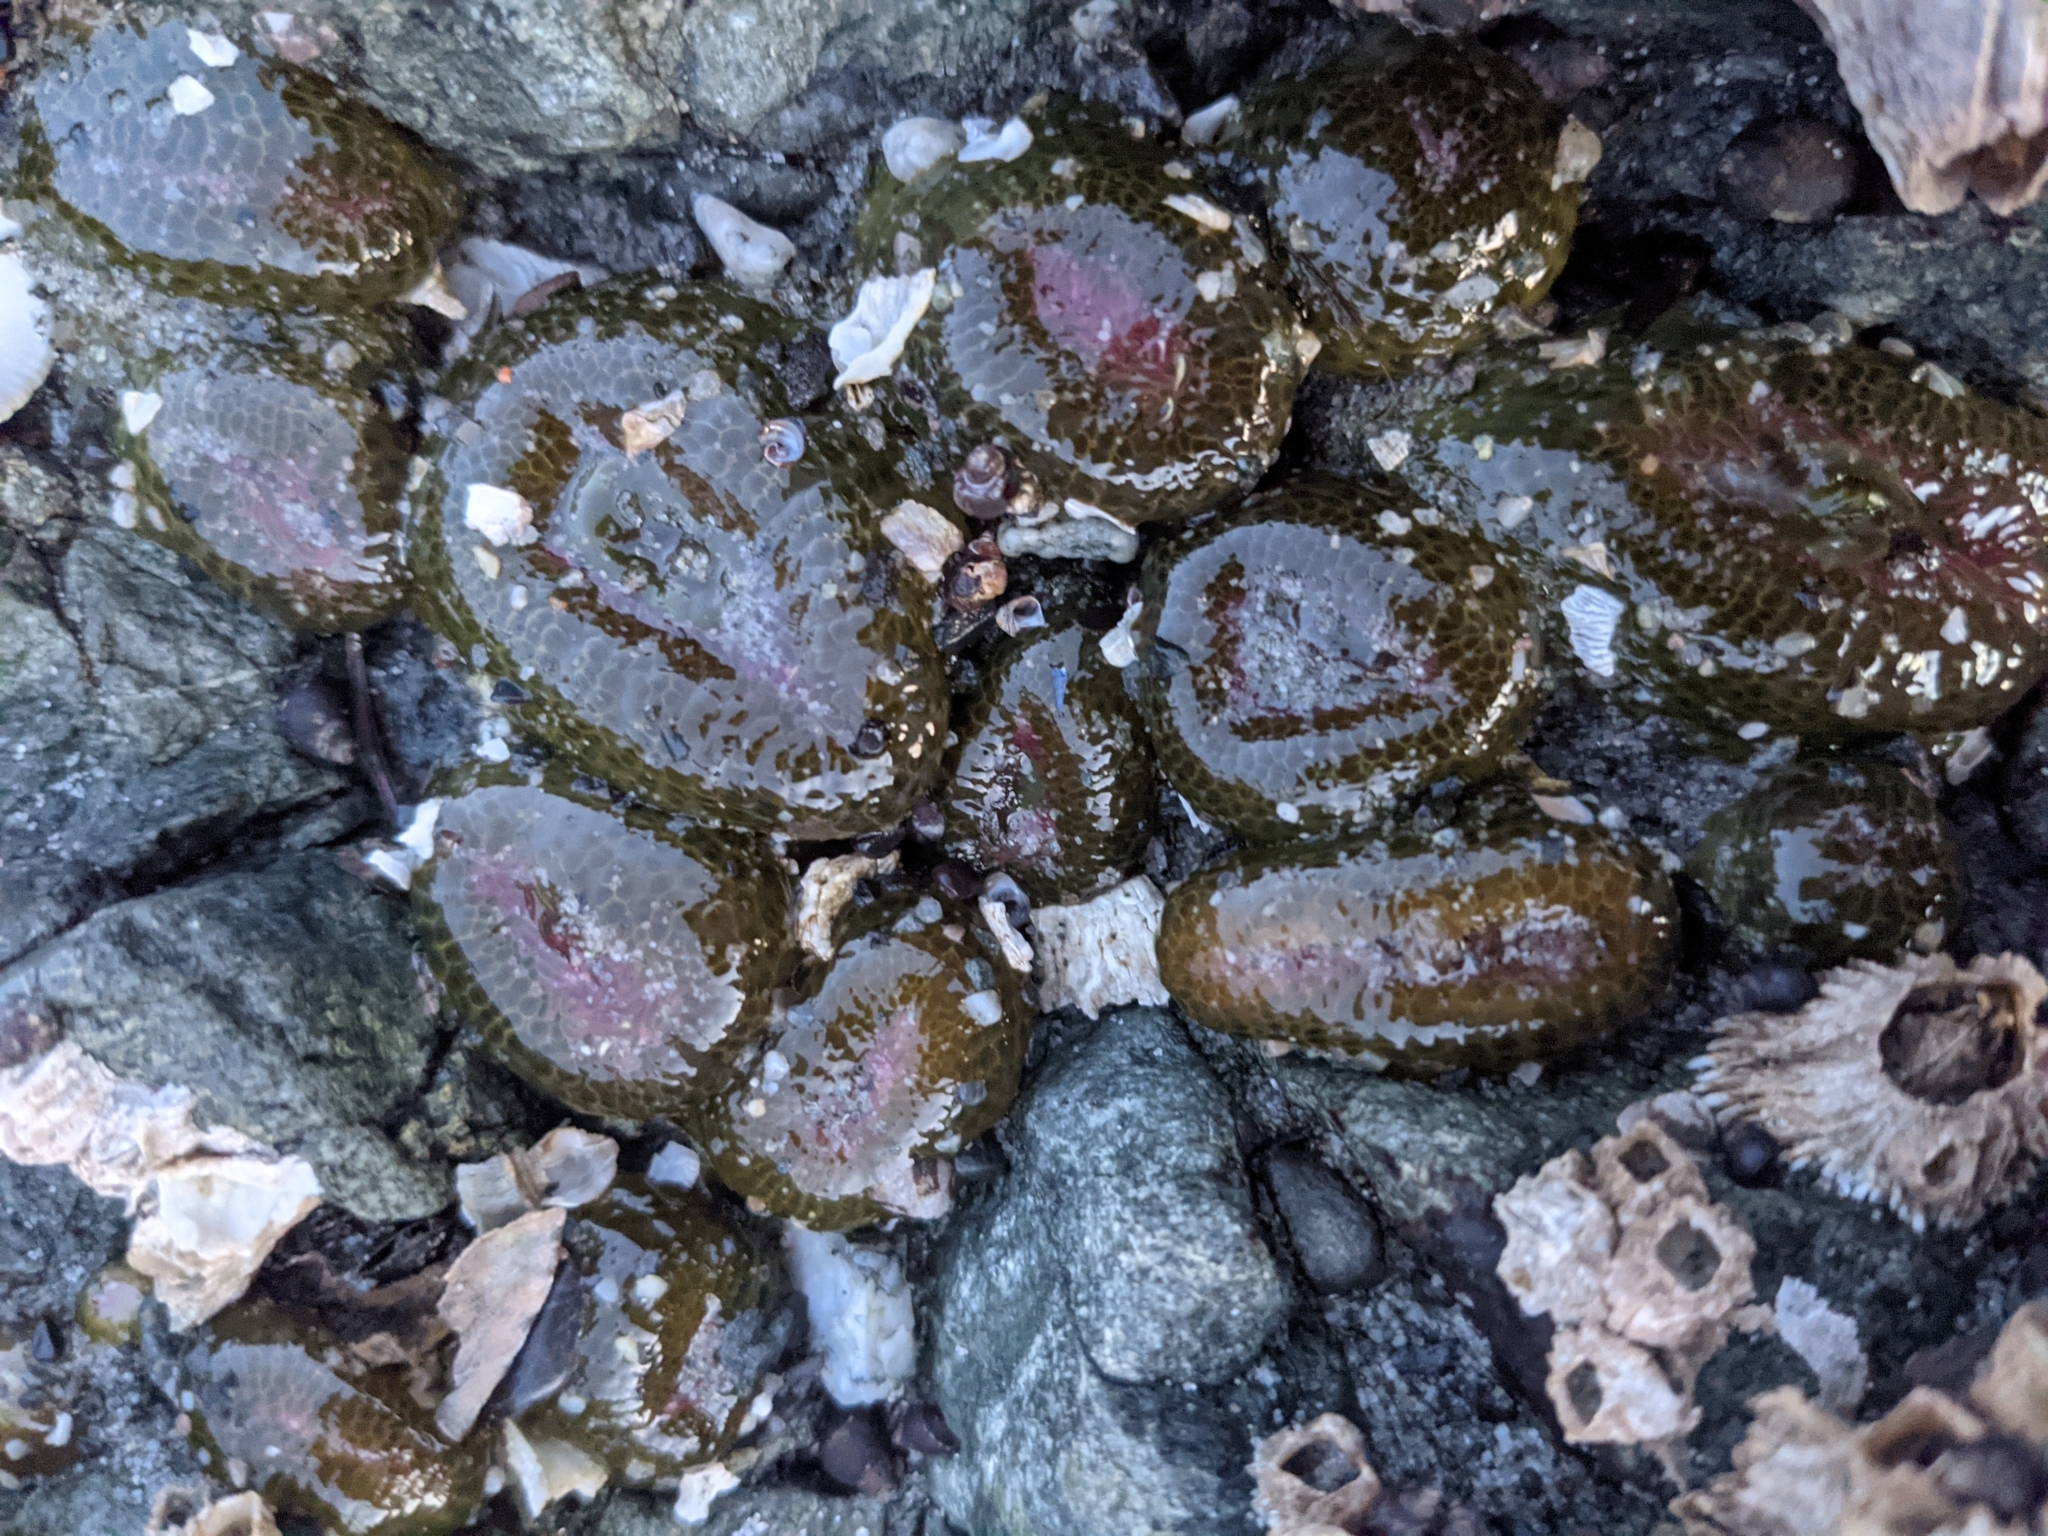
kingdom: Animalia
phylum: Cnidaria
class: Anthozoa
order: Actiniaria
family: Actiniidae
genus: Anthopleura
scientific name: Anthopleura elegantissima
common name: Clonal anemone
